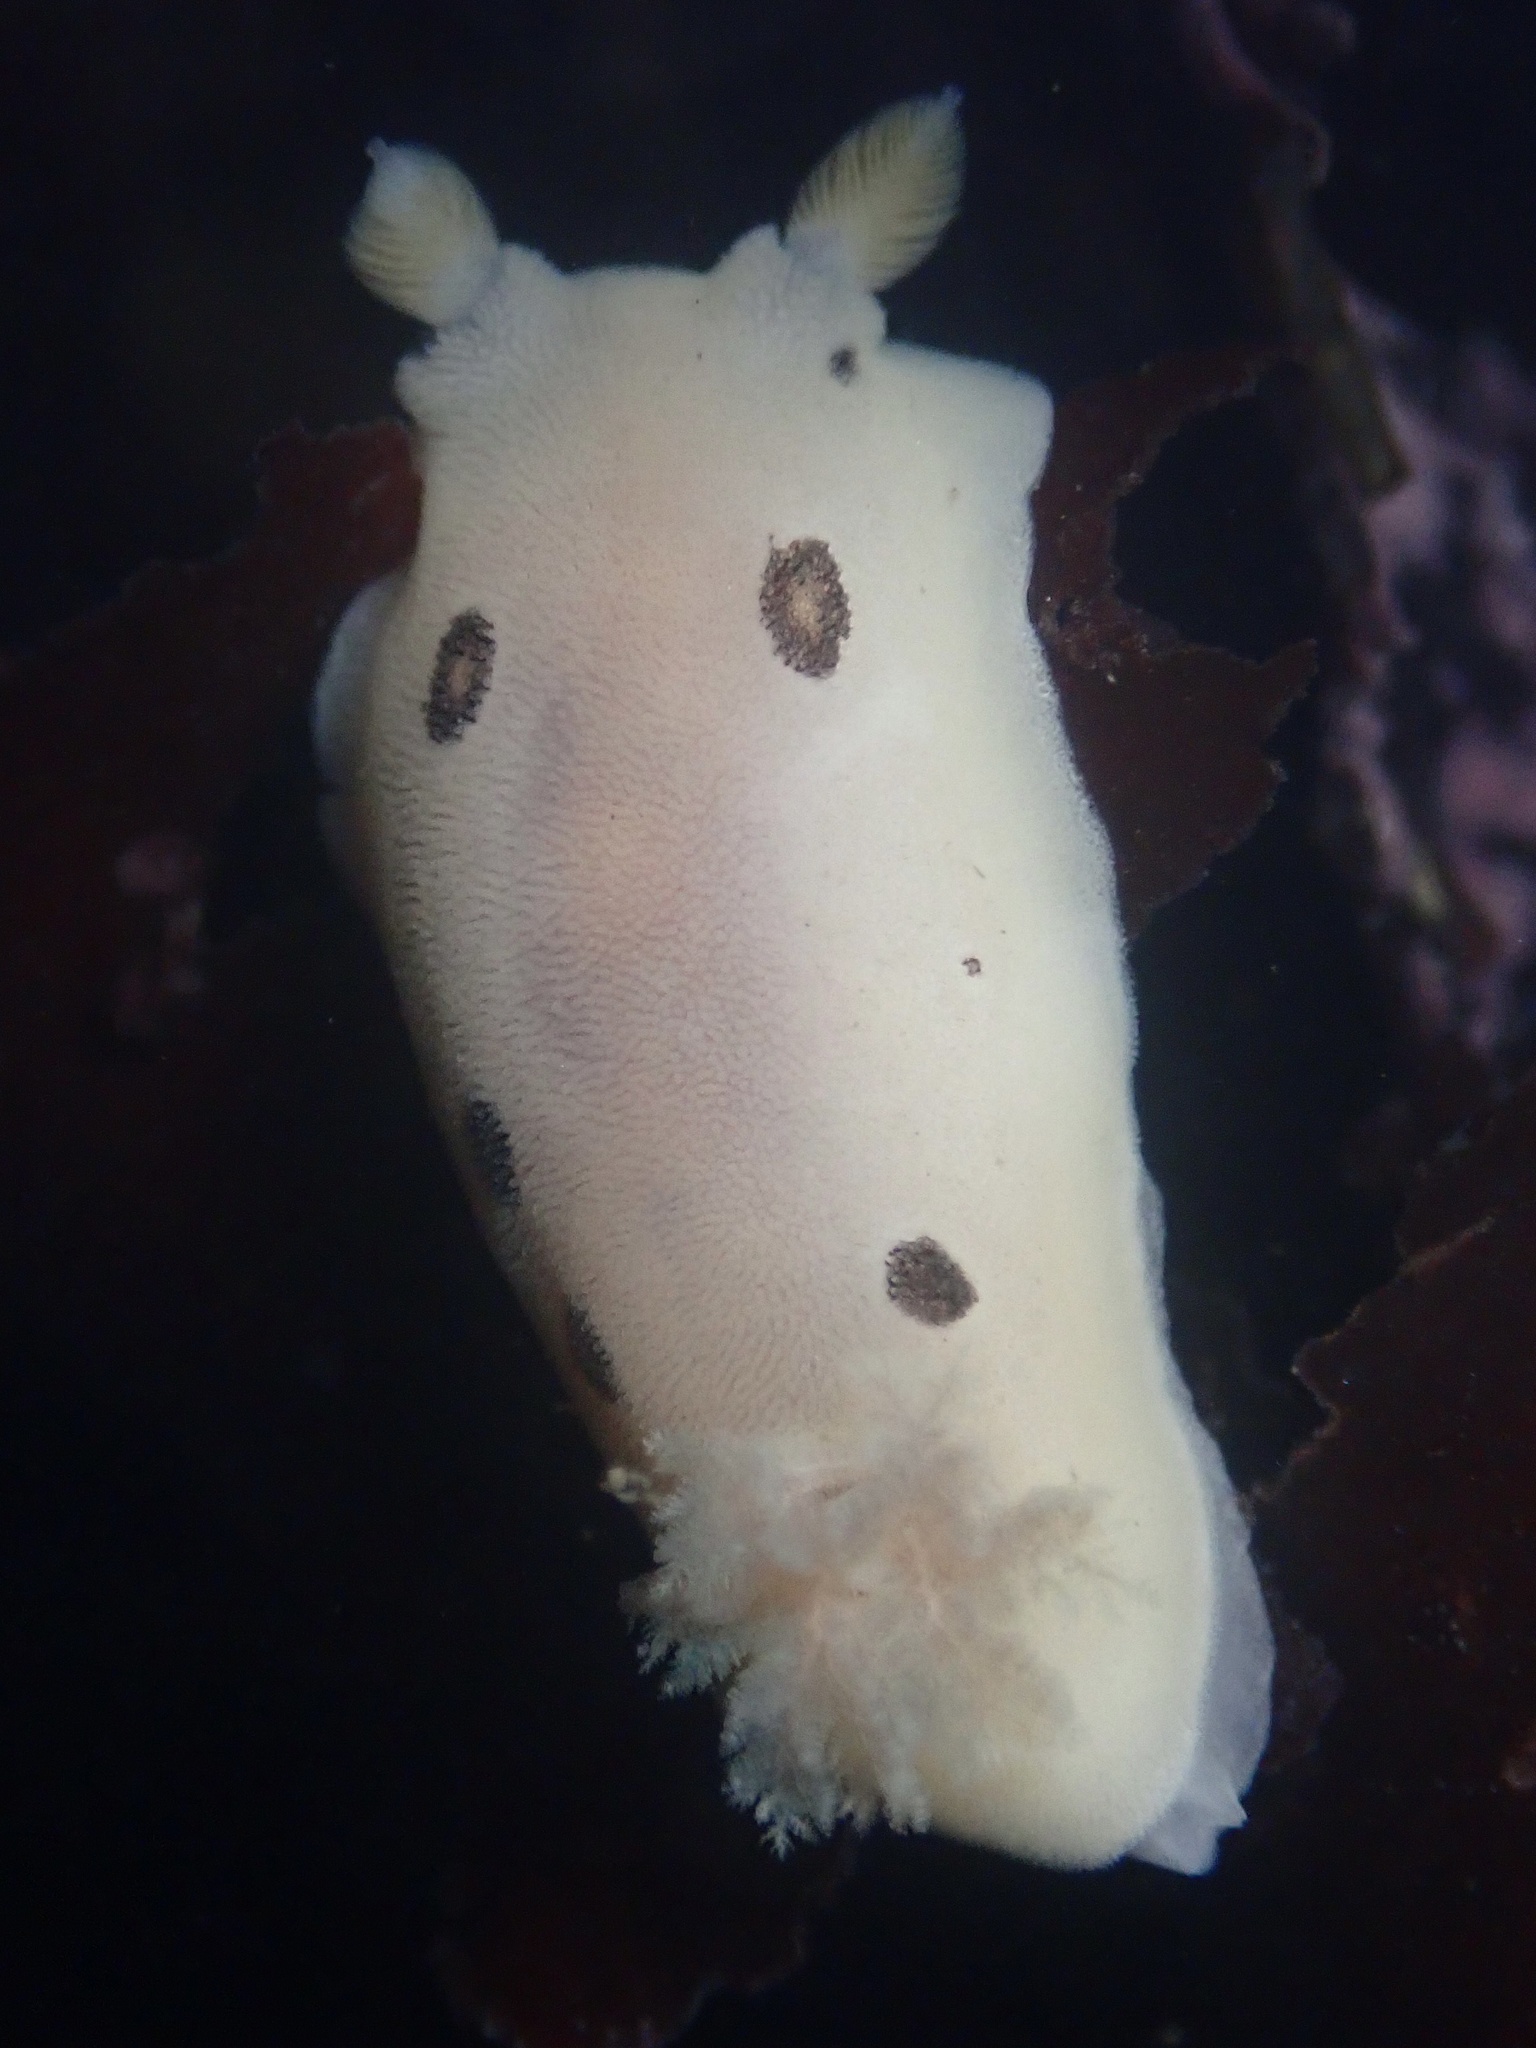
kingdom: Animalia
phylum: Mollusca
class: Gastropoda
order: Nudibranchia
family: Discodorididae
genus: Diaulula
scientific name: Diaulula sandiegensis
